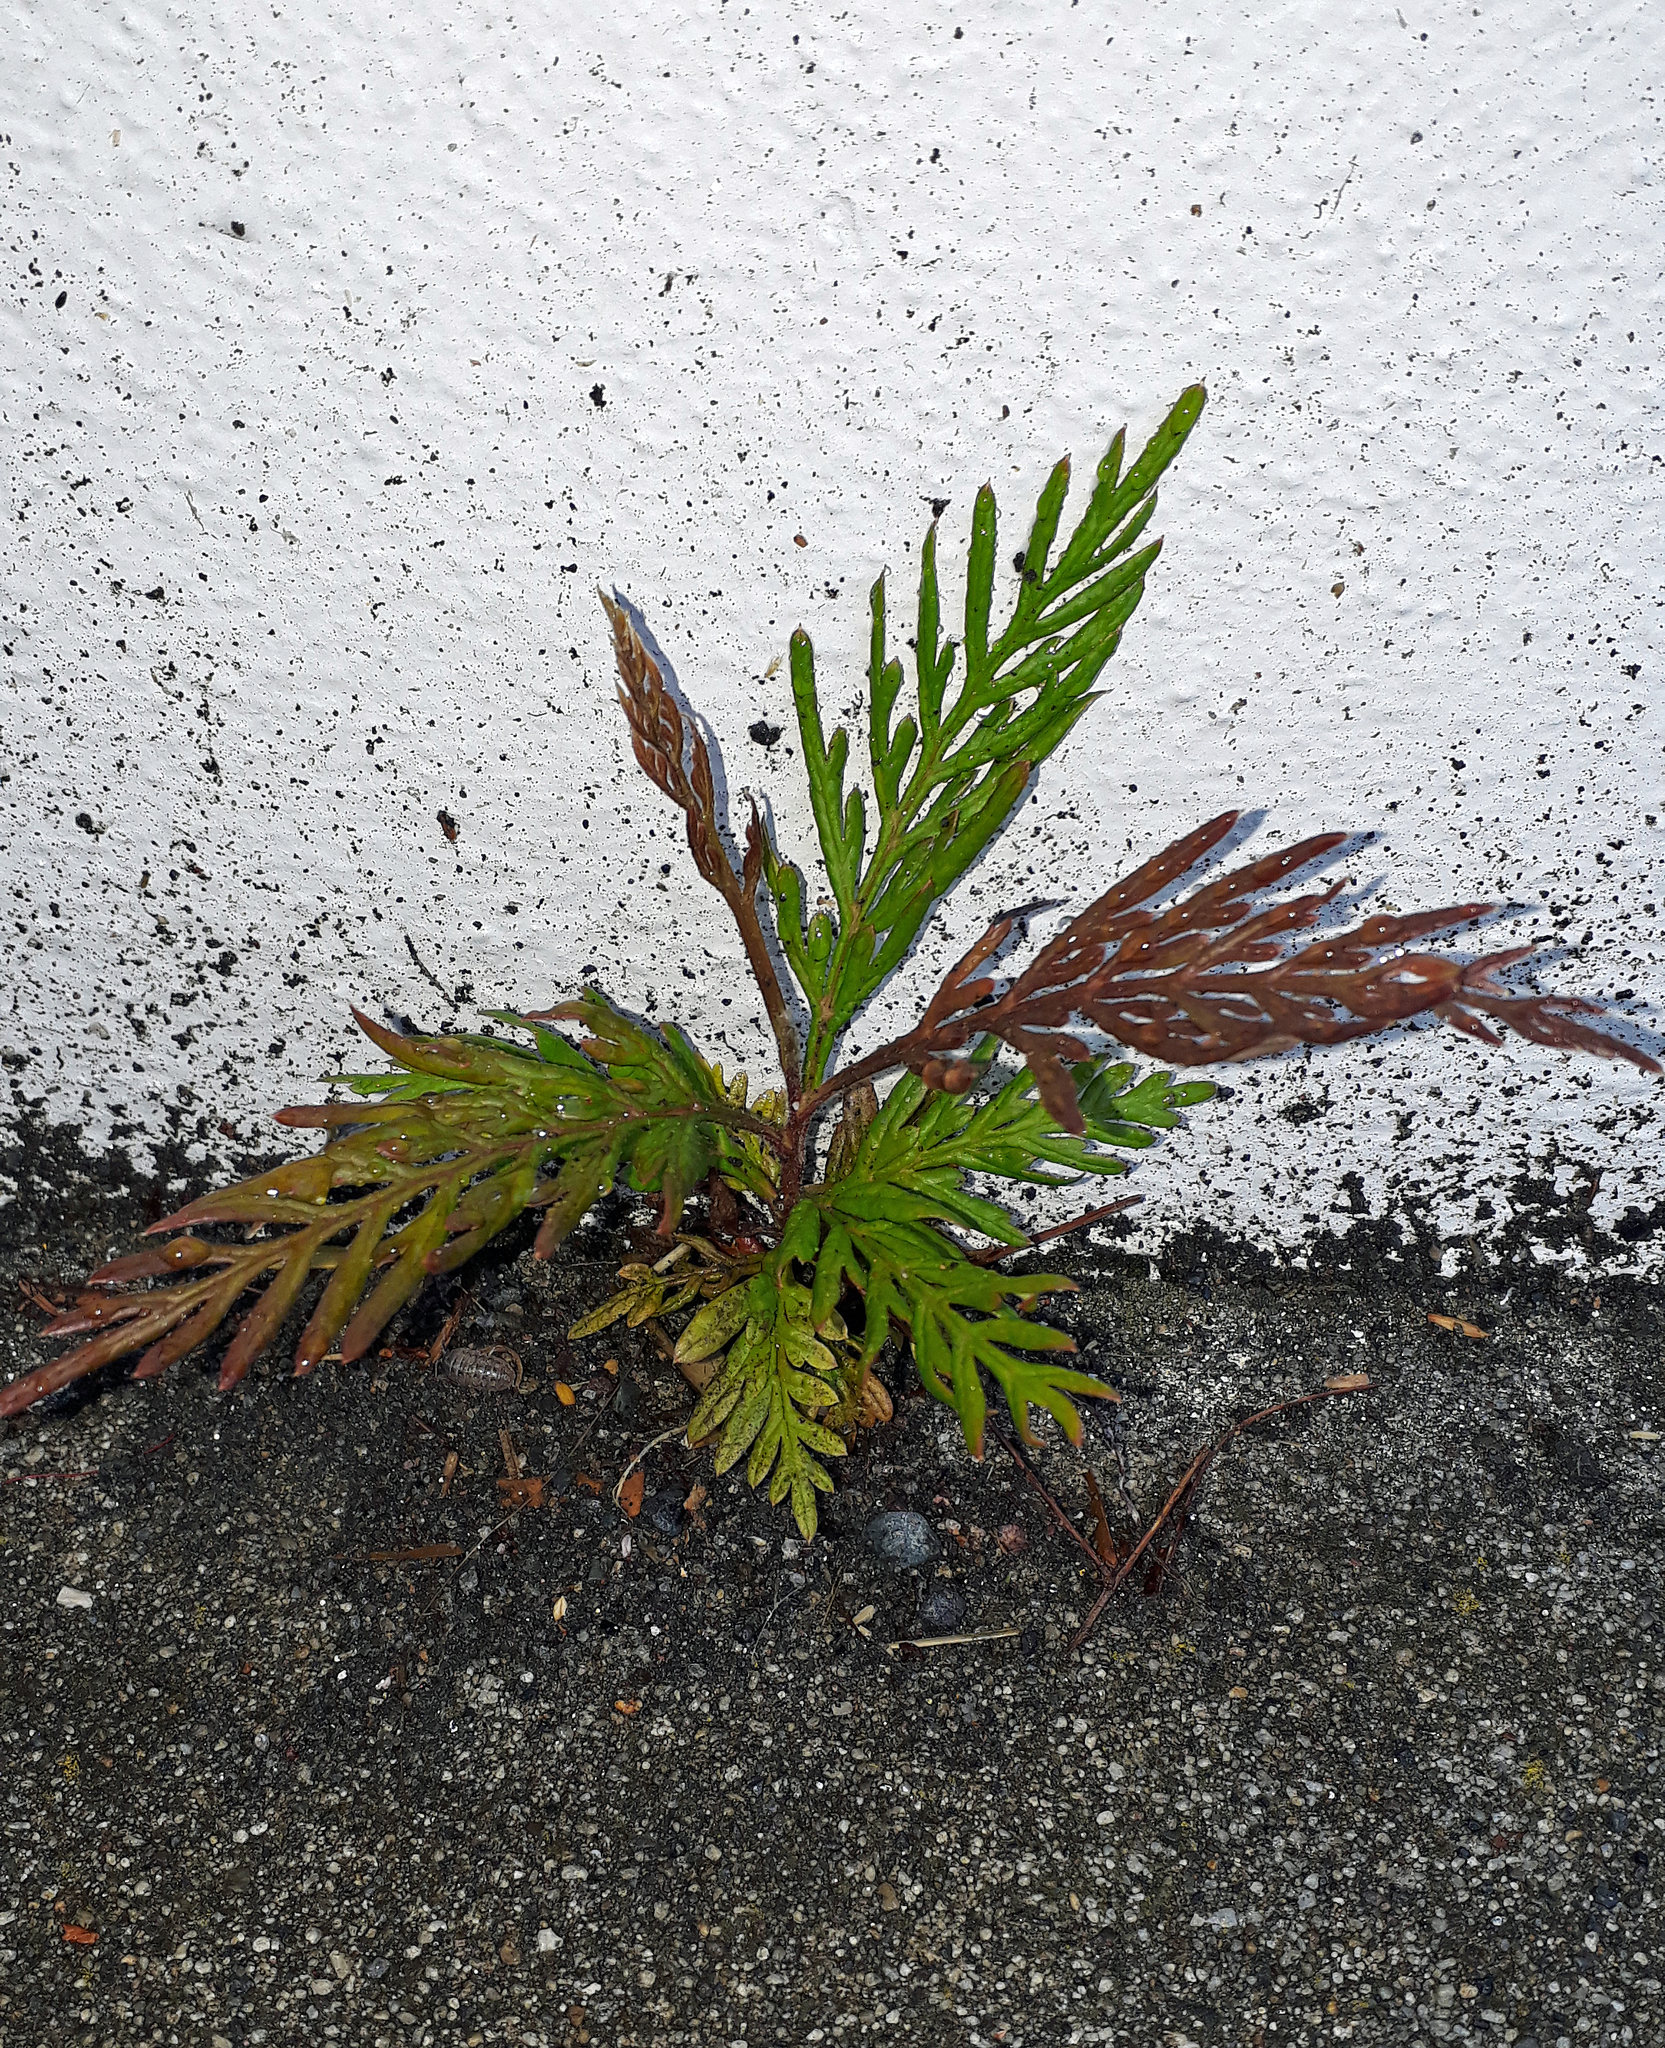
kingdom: Plantae
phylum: Tracheophyta
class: Magnoliopsida
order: Proteales
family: Proteaceae
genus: Grevillea
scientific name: Grevillea robusta
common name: Silkoak
